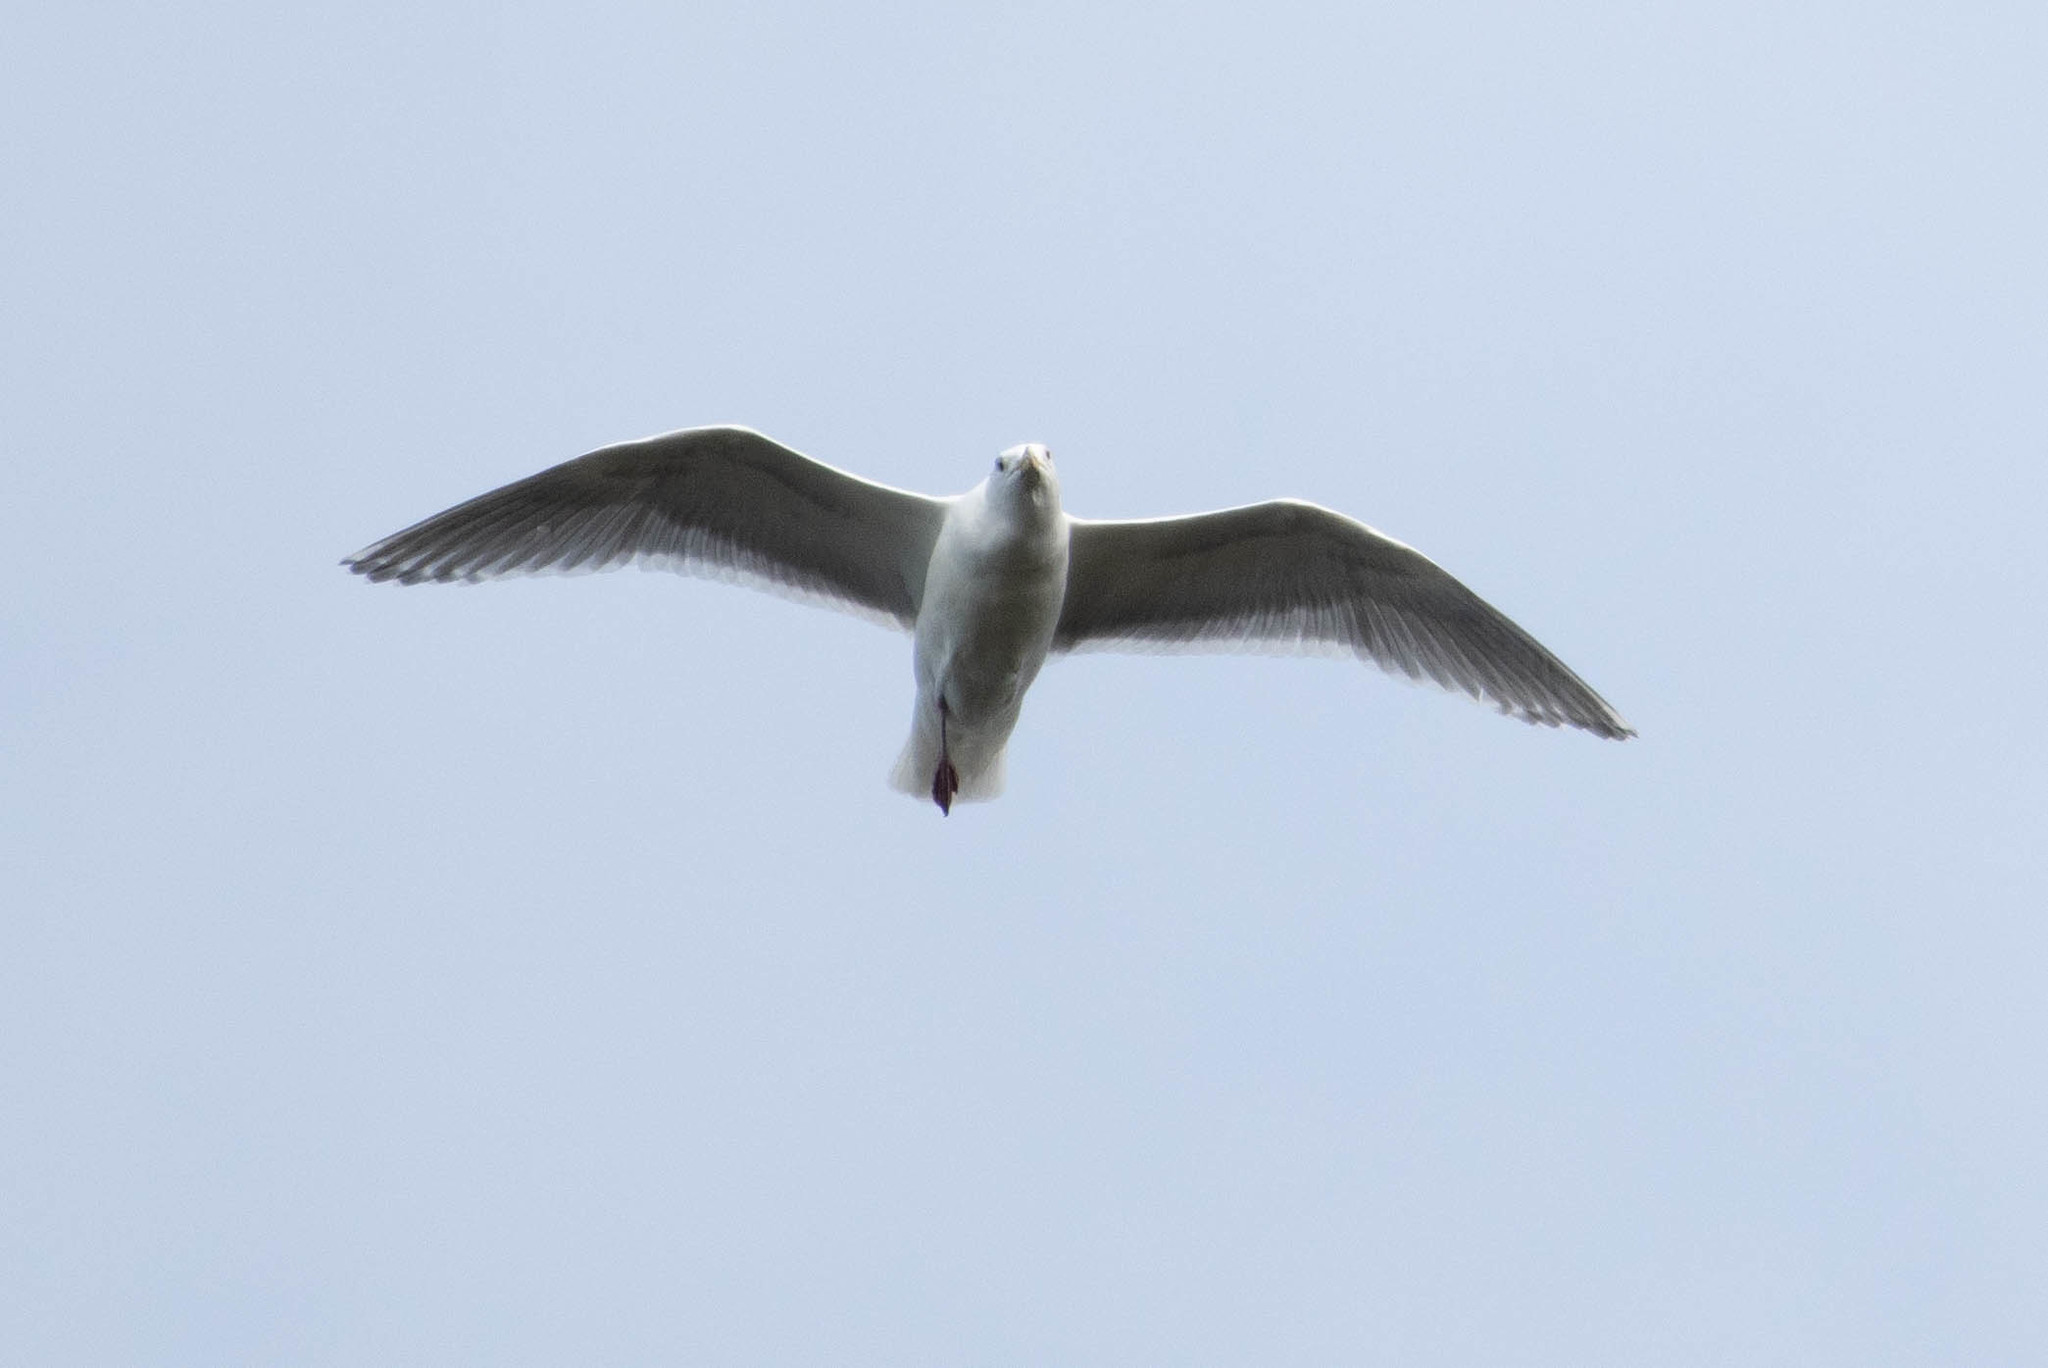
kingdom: Animalia
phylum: Chordata
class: Aves
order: Charadriiformes
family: Laridae
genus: Larus
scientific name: Larus glaucescens
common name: Glaucous-winged gull
